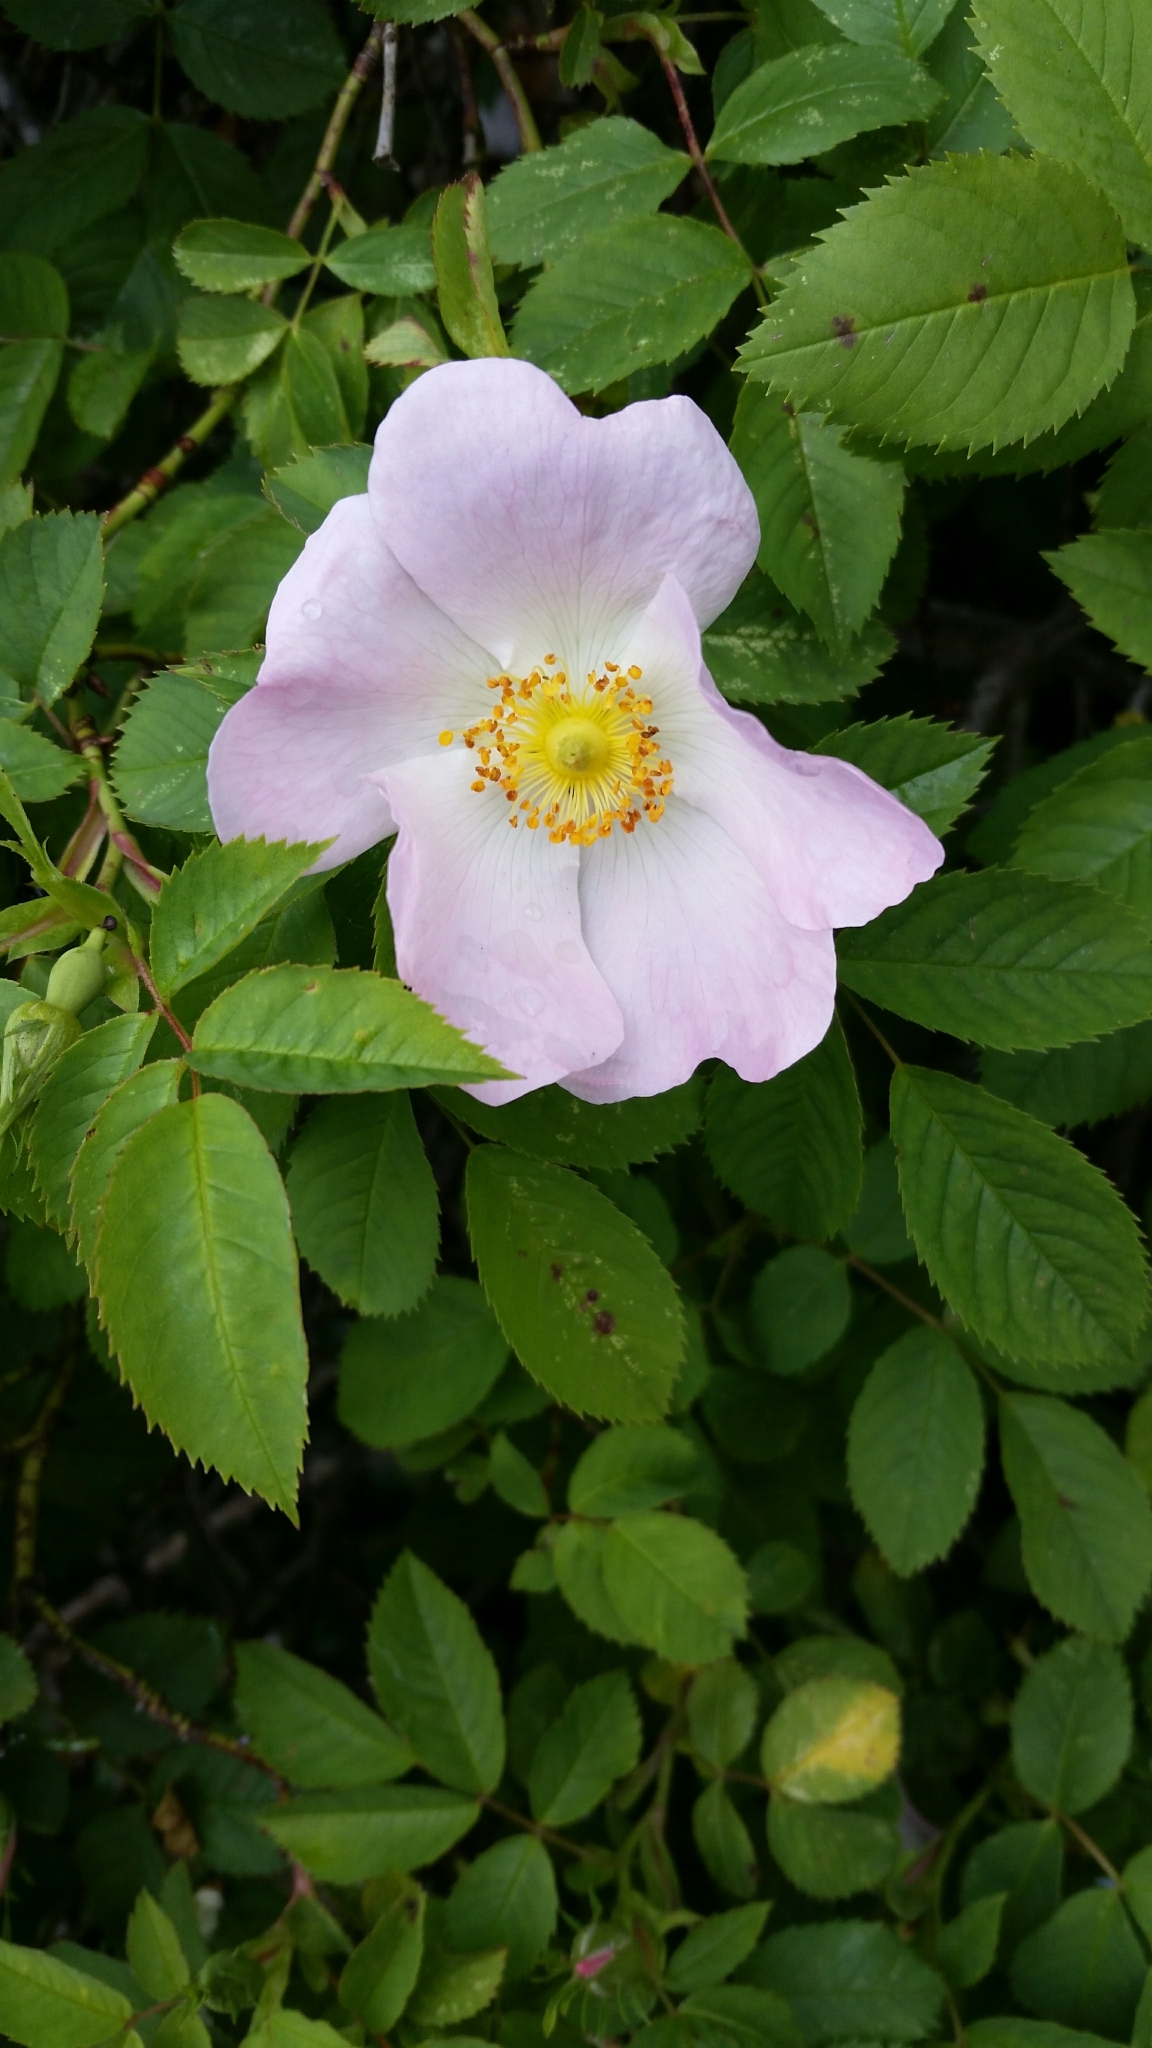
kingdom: Plantae
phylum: Tracheophyta
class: Magnoliopsida
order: Rosales
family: Rosaceae
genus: Rosa
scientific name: Rosa canina
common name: Dog rose
